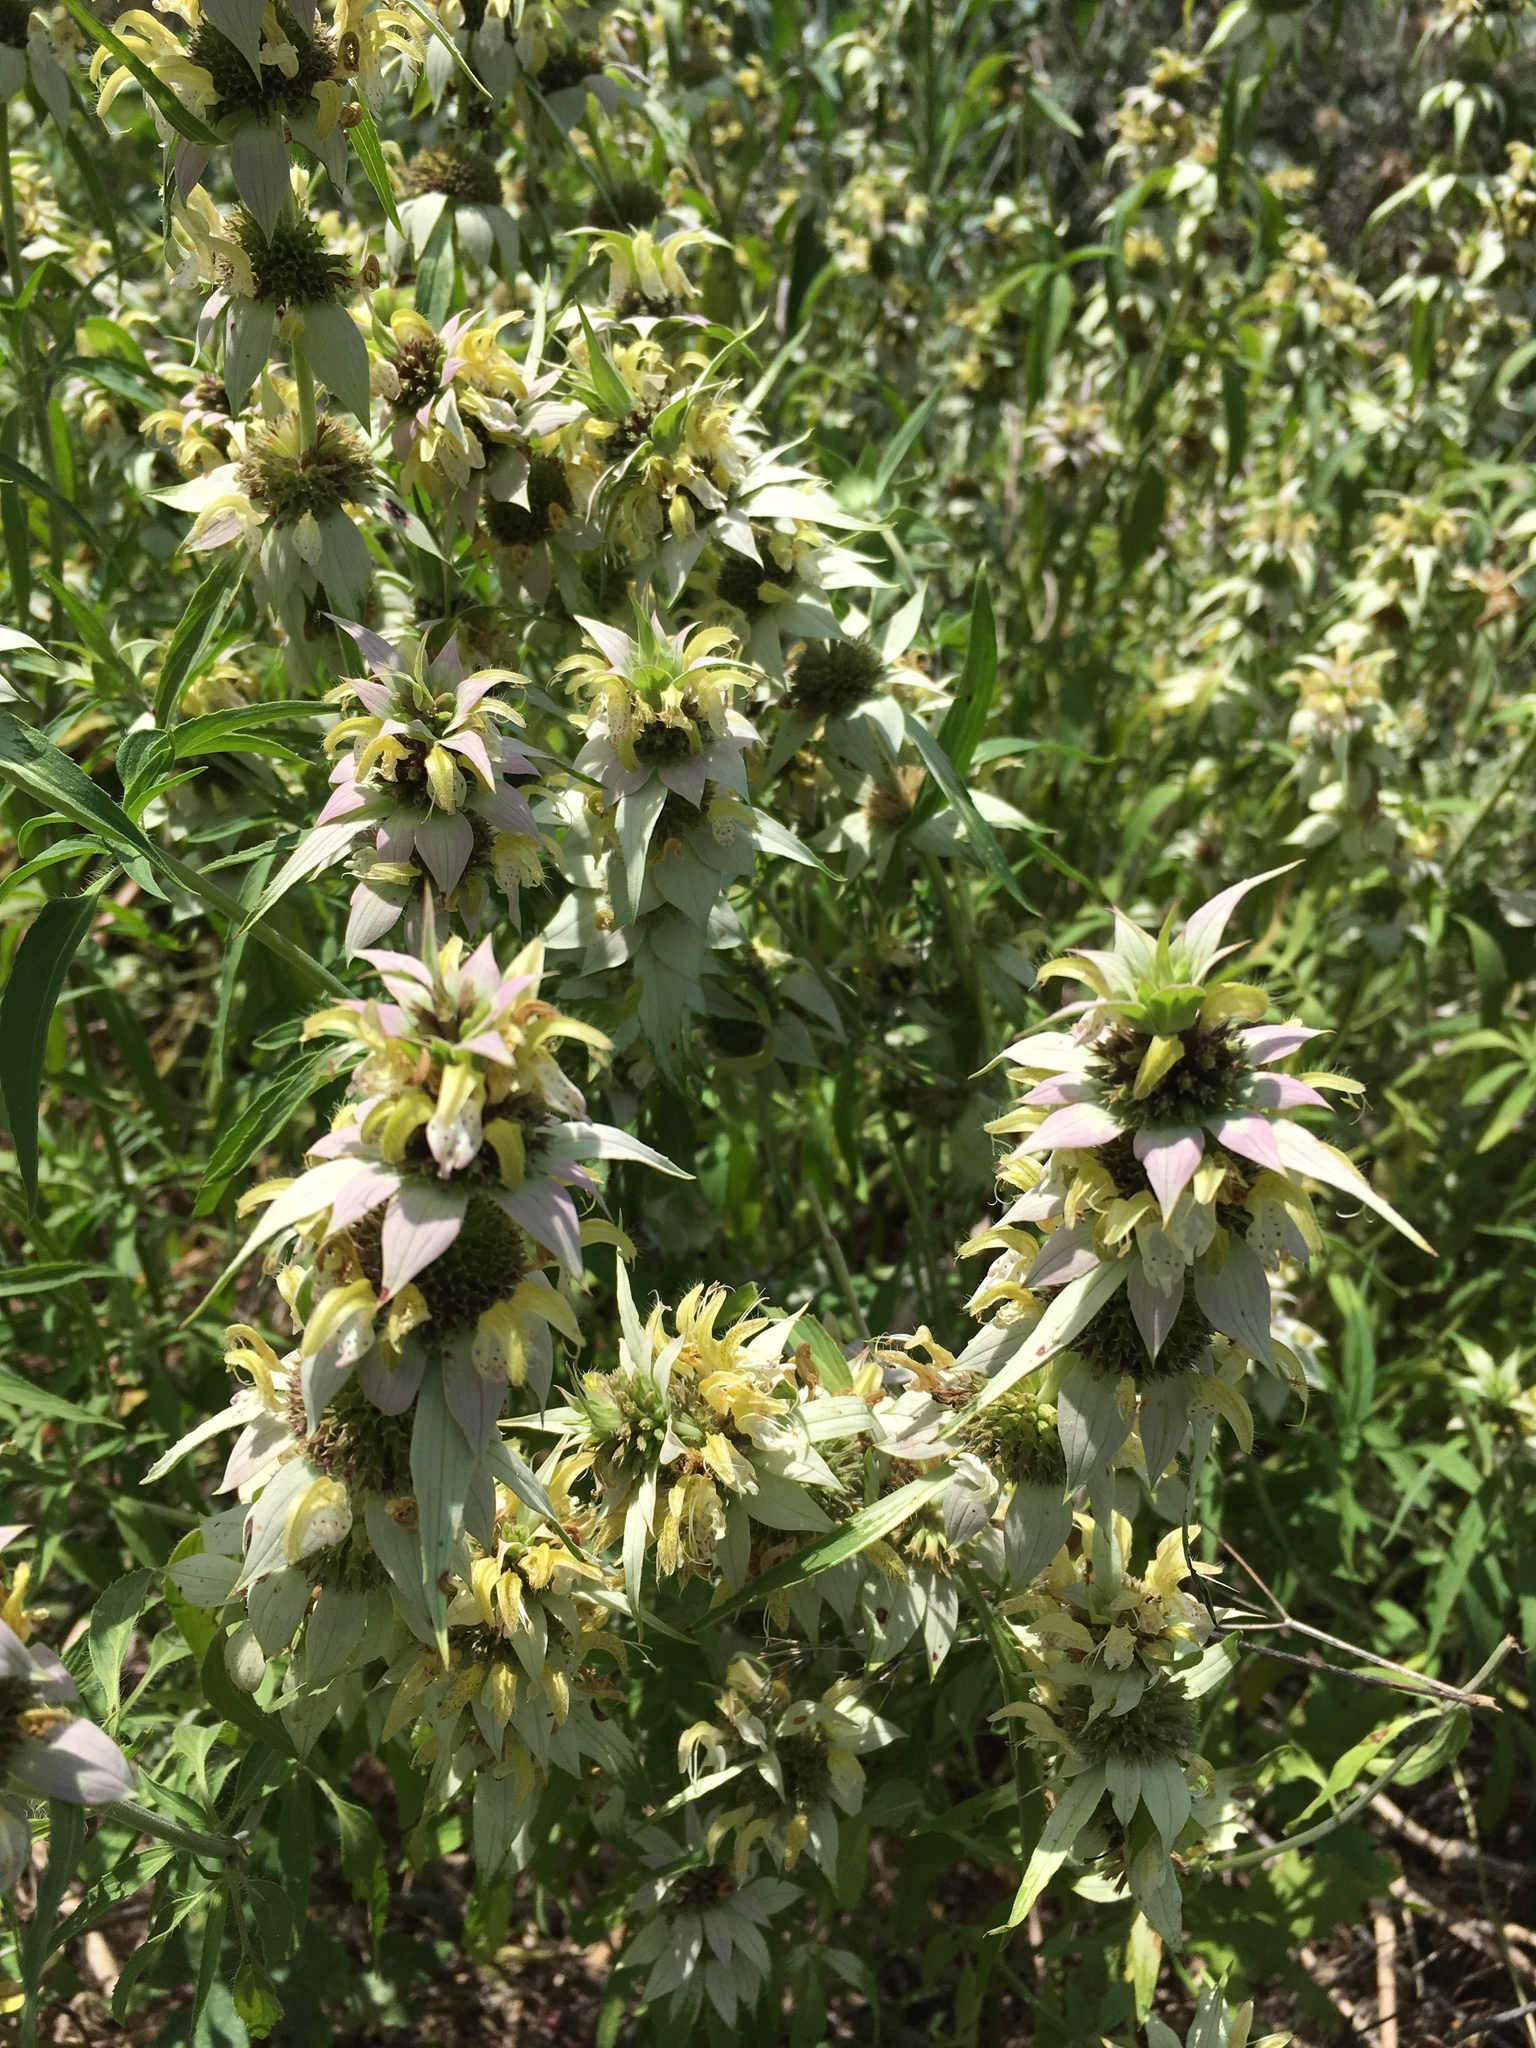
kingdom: Plantae
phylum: Tracheophyta
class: Magnoliopsida
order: Lamiales
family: Lamiaceae
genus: Monarda
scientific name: Monarda punctata
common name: Dotted monarda
